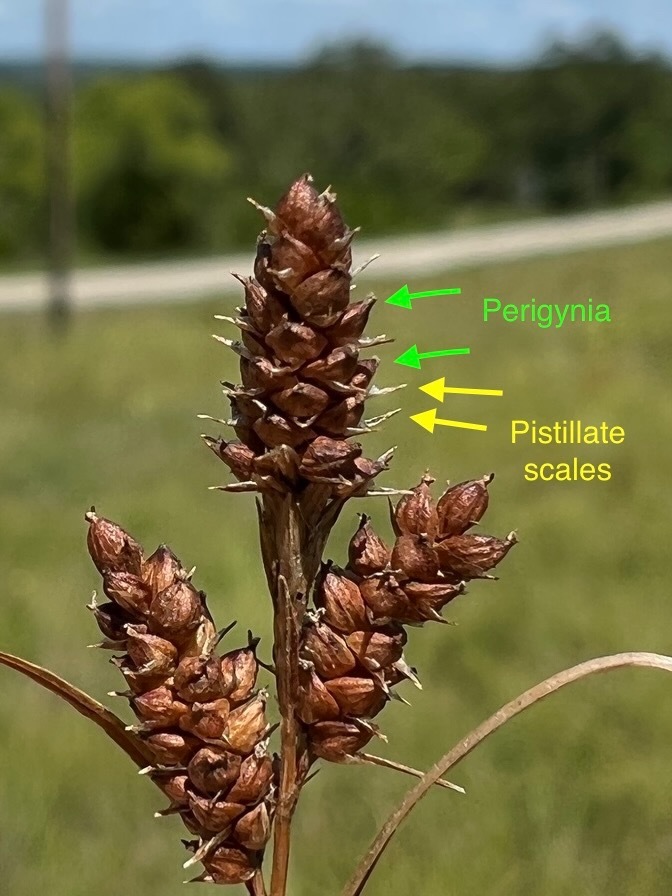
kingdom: Plantae
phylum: Tracheophyta
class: Liliopsida
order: Poales
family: Cyperaceae
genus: Carex
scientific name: Carex bushii
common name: Bush's sedge
